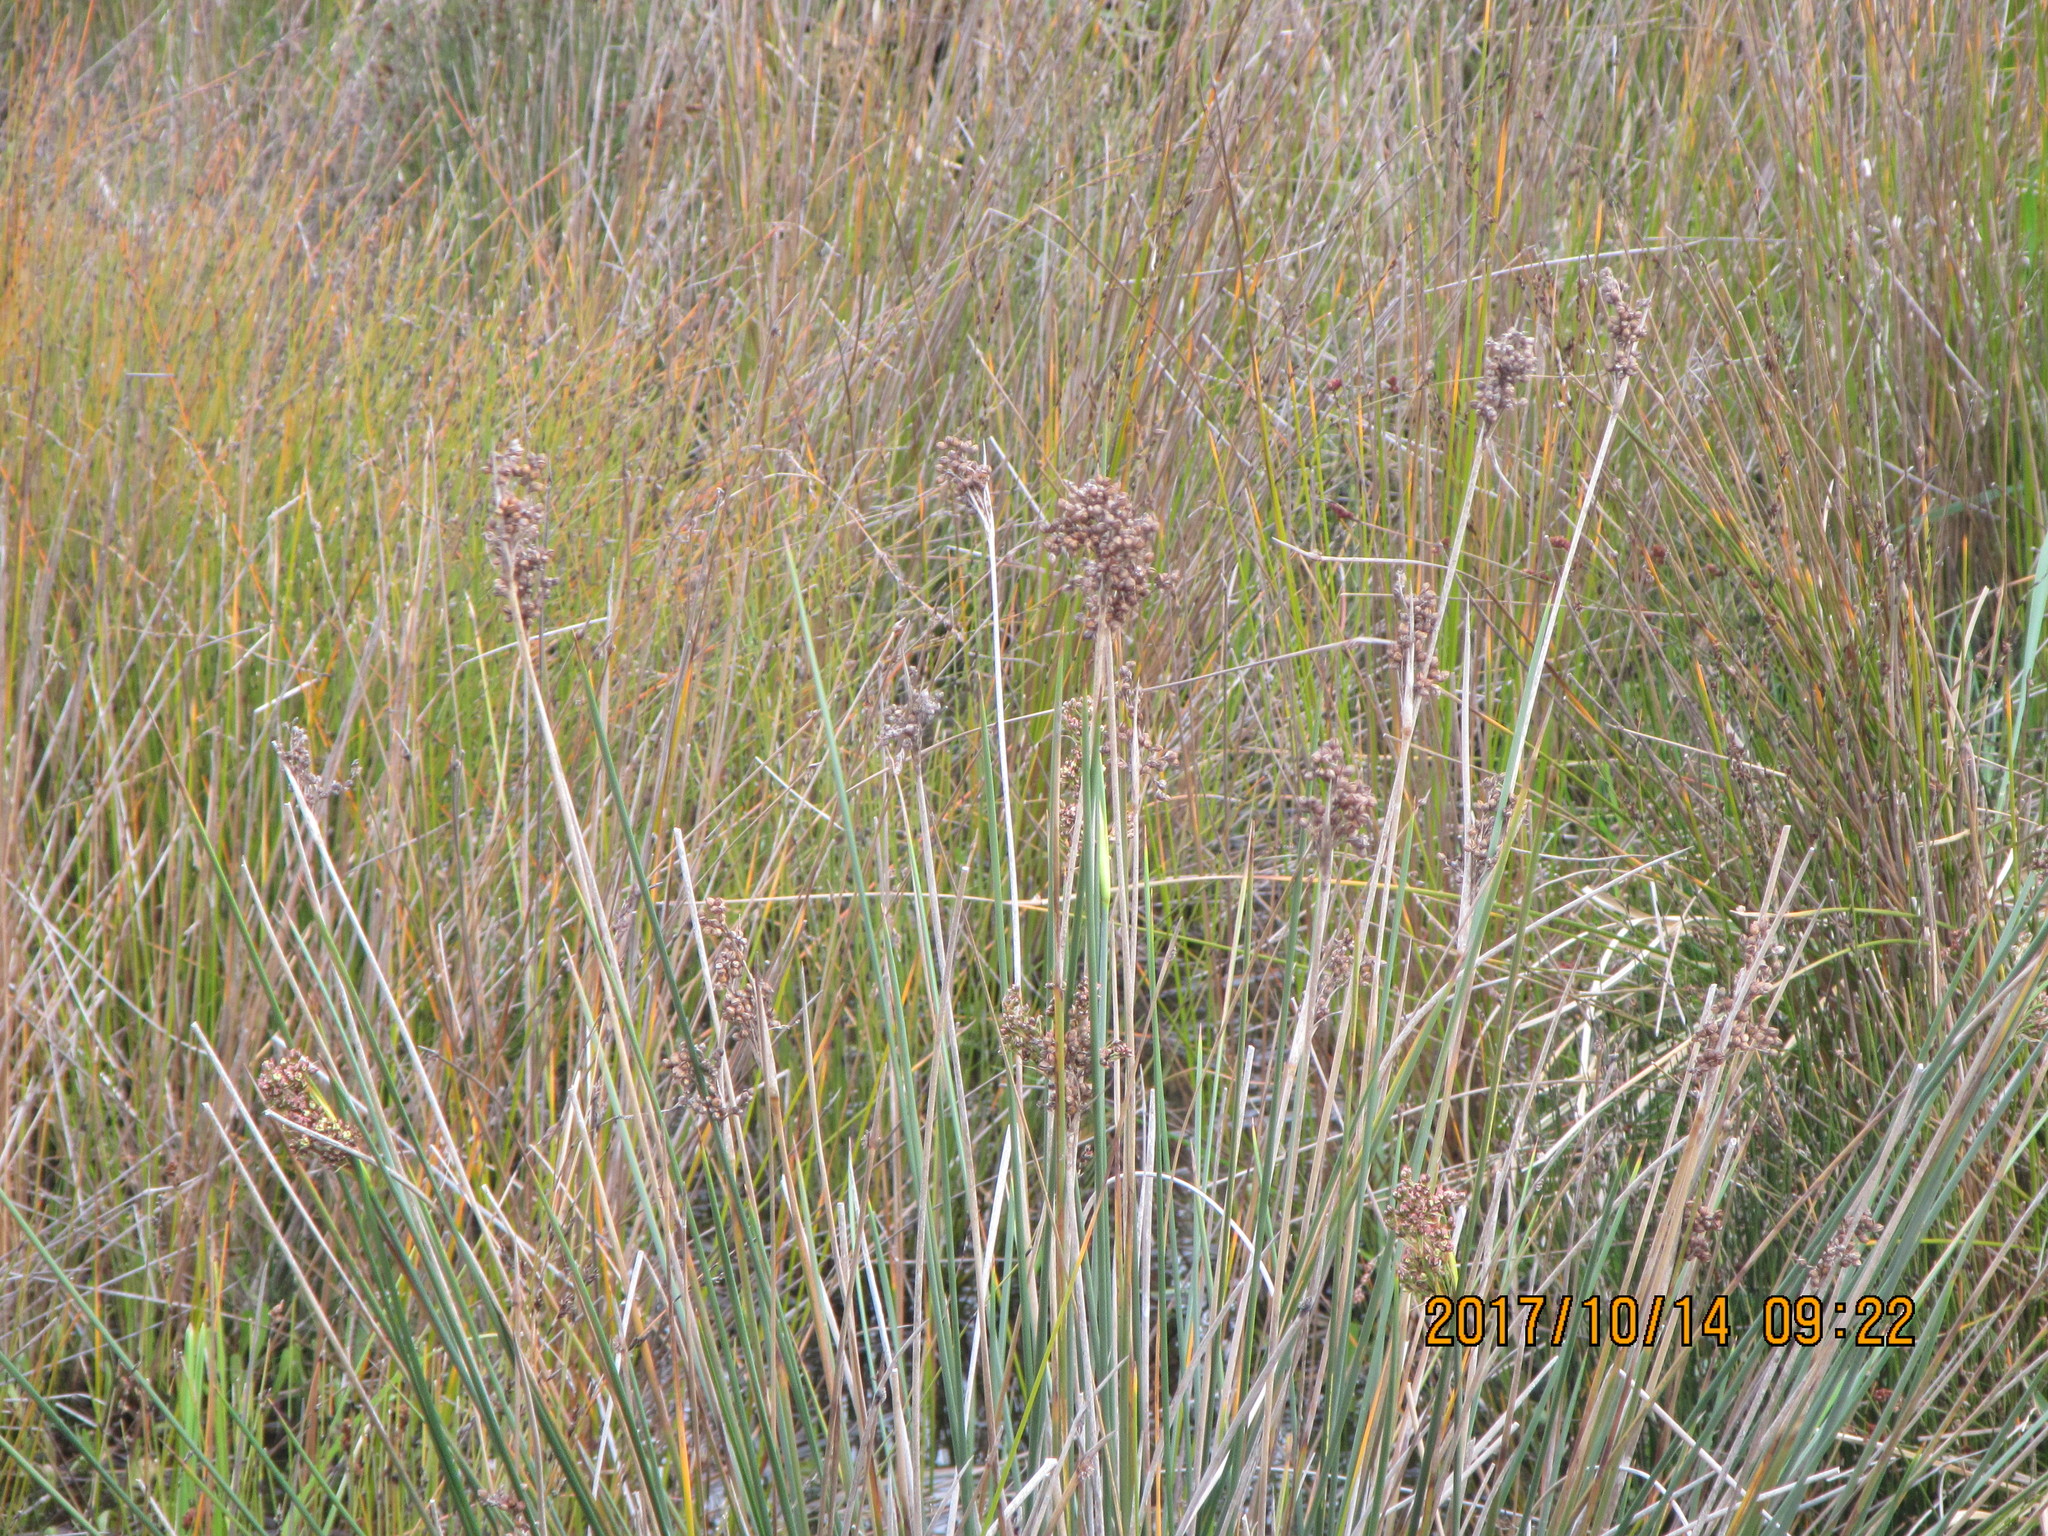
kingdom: Plantae
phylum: Tracheophyta
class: Liliopsida
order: Poales
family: Juncaceae
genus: Juncus
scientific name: Juncus acutus
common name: Sharp rush
